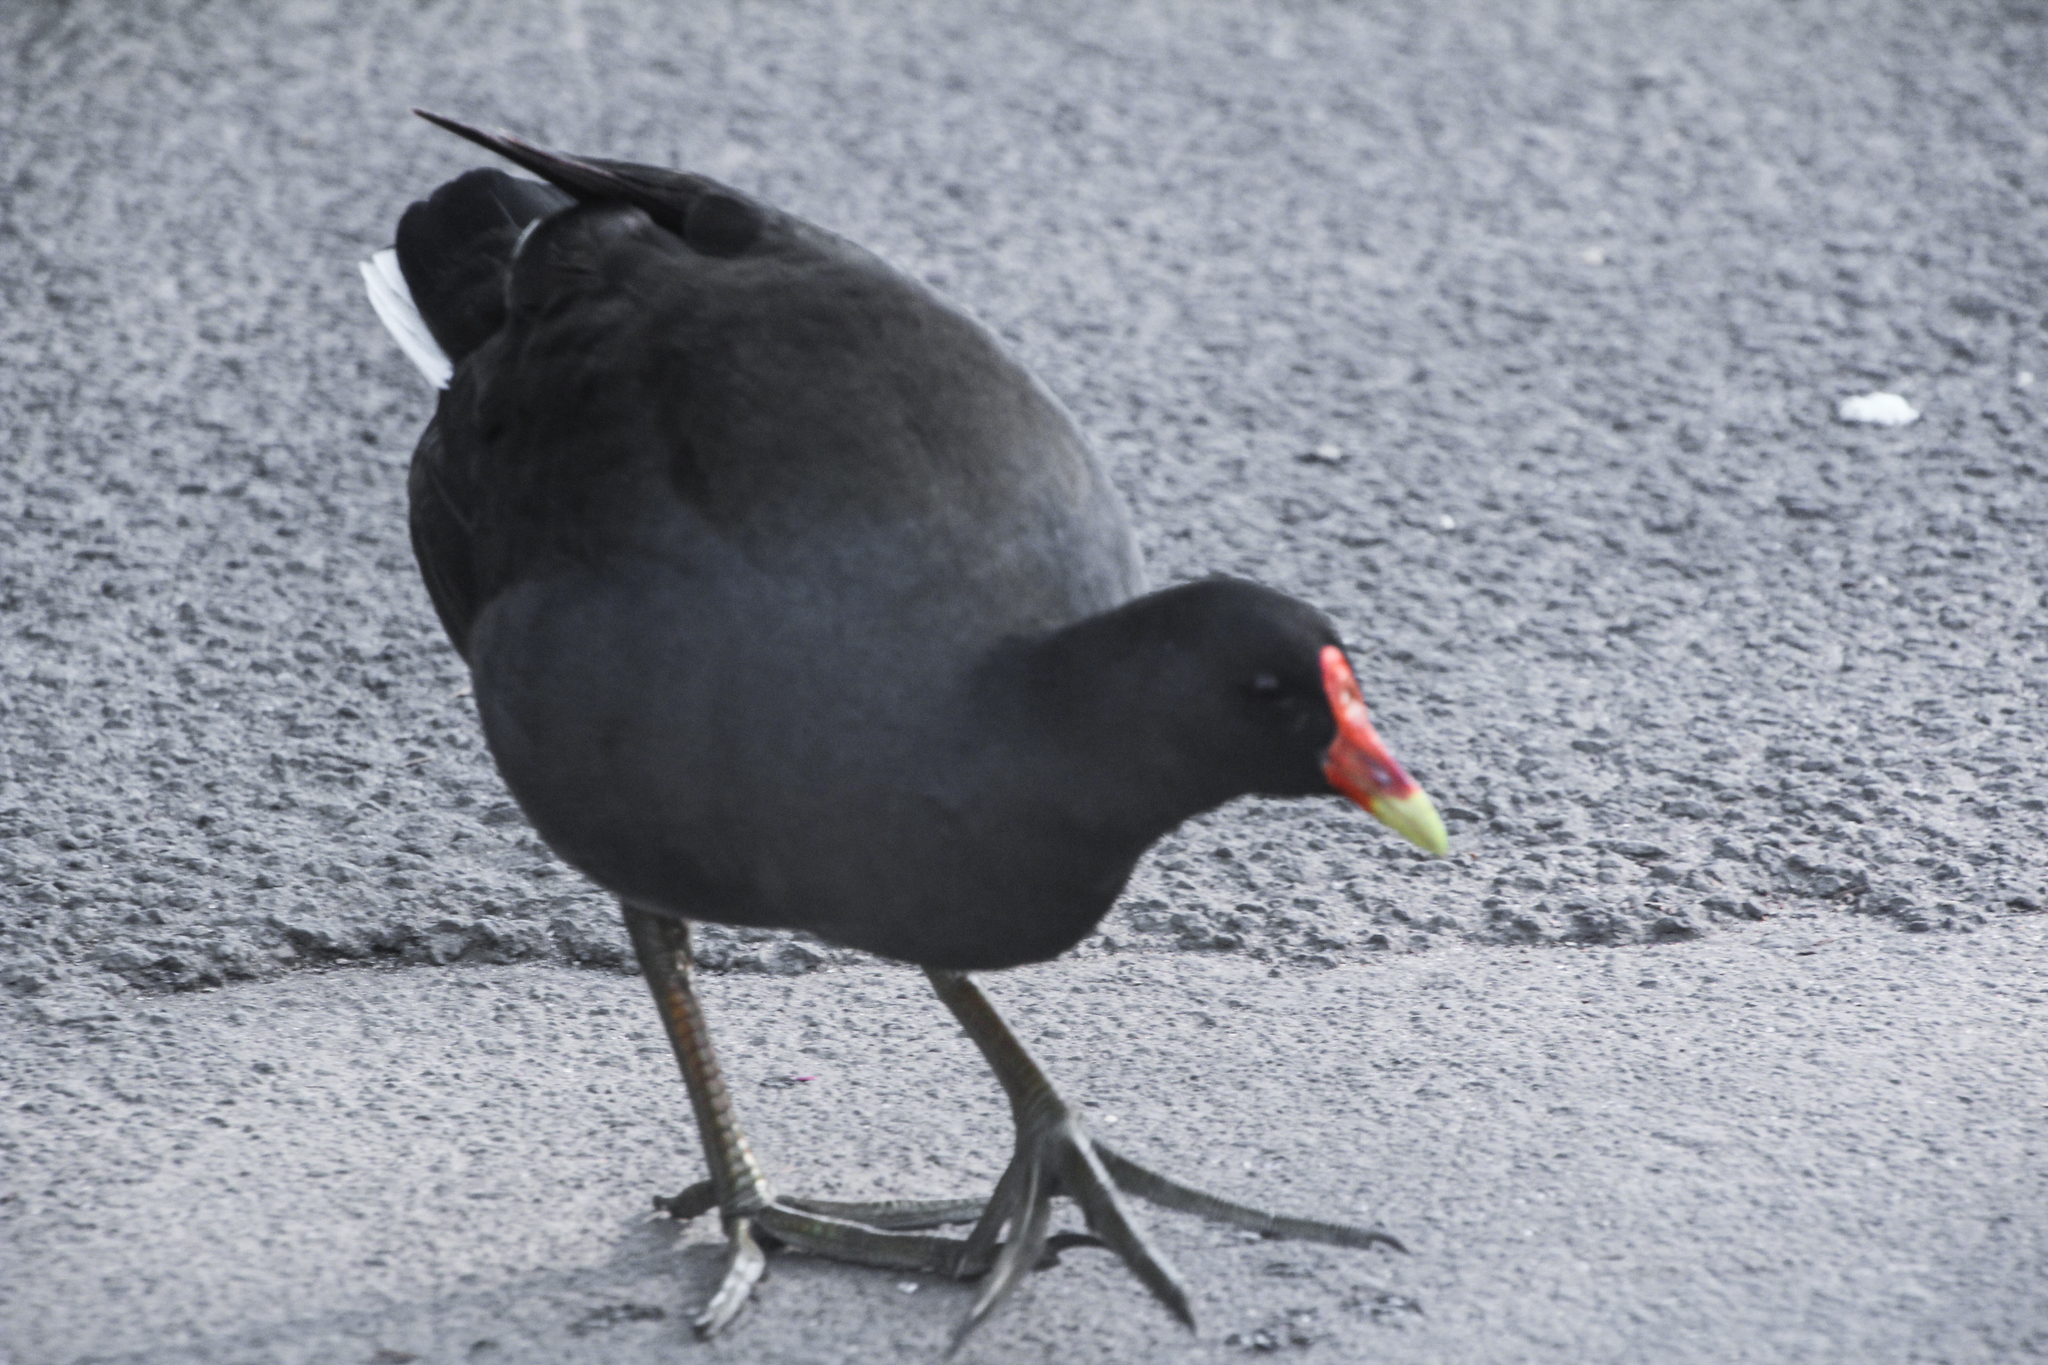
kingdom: Animalia
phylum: Chordata
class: Aves
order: Gruiformes
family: Rallidae
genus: Gallinula
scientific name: Gallinula tenebrosa
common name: Dusky moorhen
